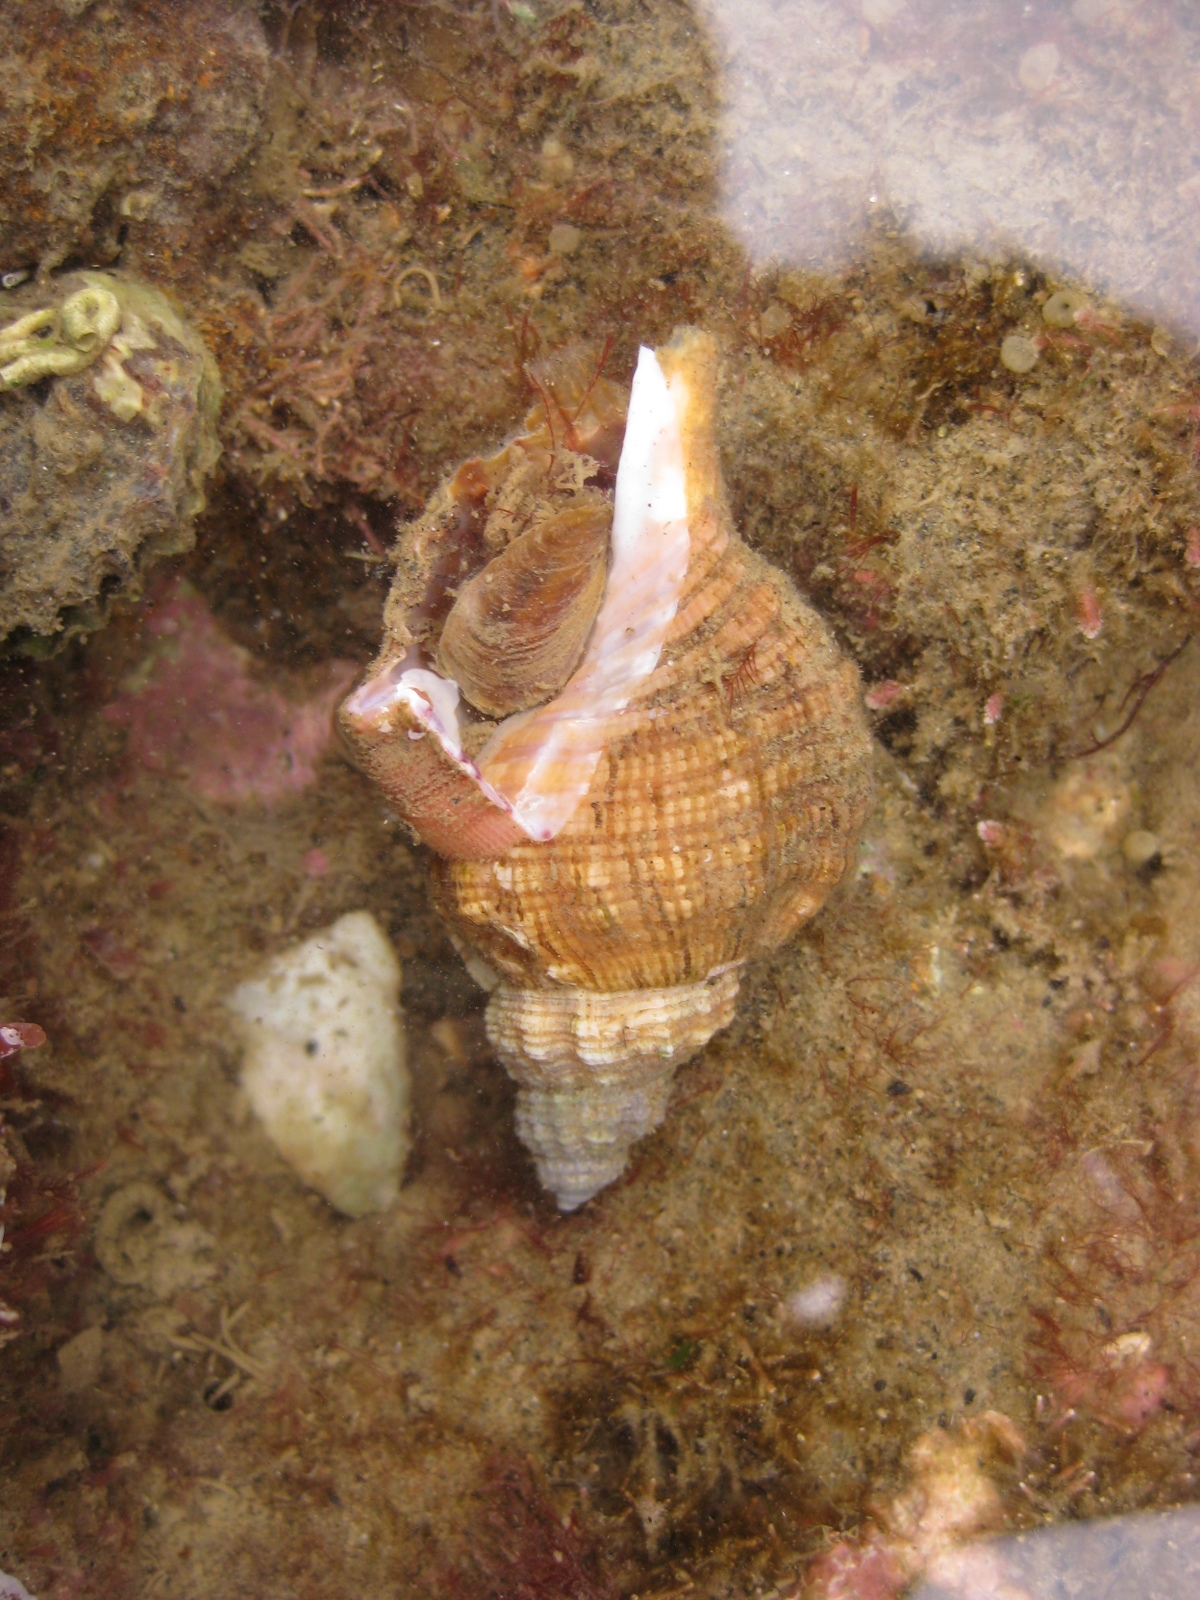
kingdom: Animalia
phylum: Mollusca
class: Gastropoda
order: Littorinimorpha
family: Cymatiidae
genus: Cabestana
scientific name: Cabestana spengleri
